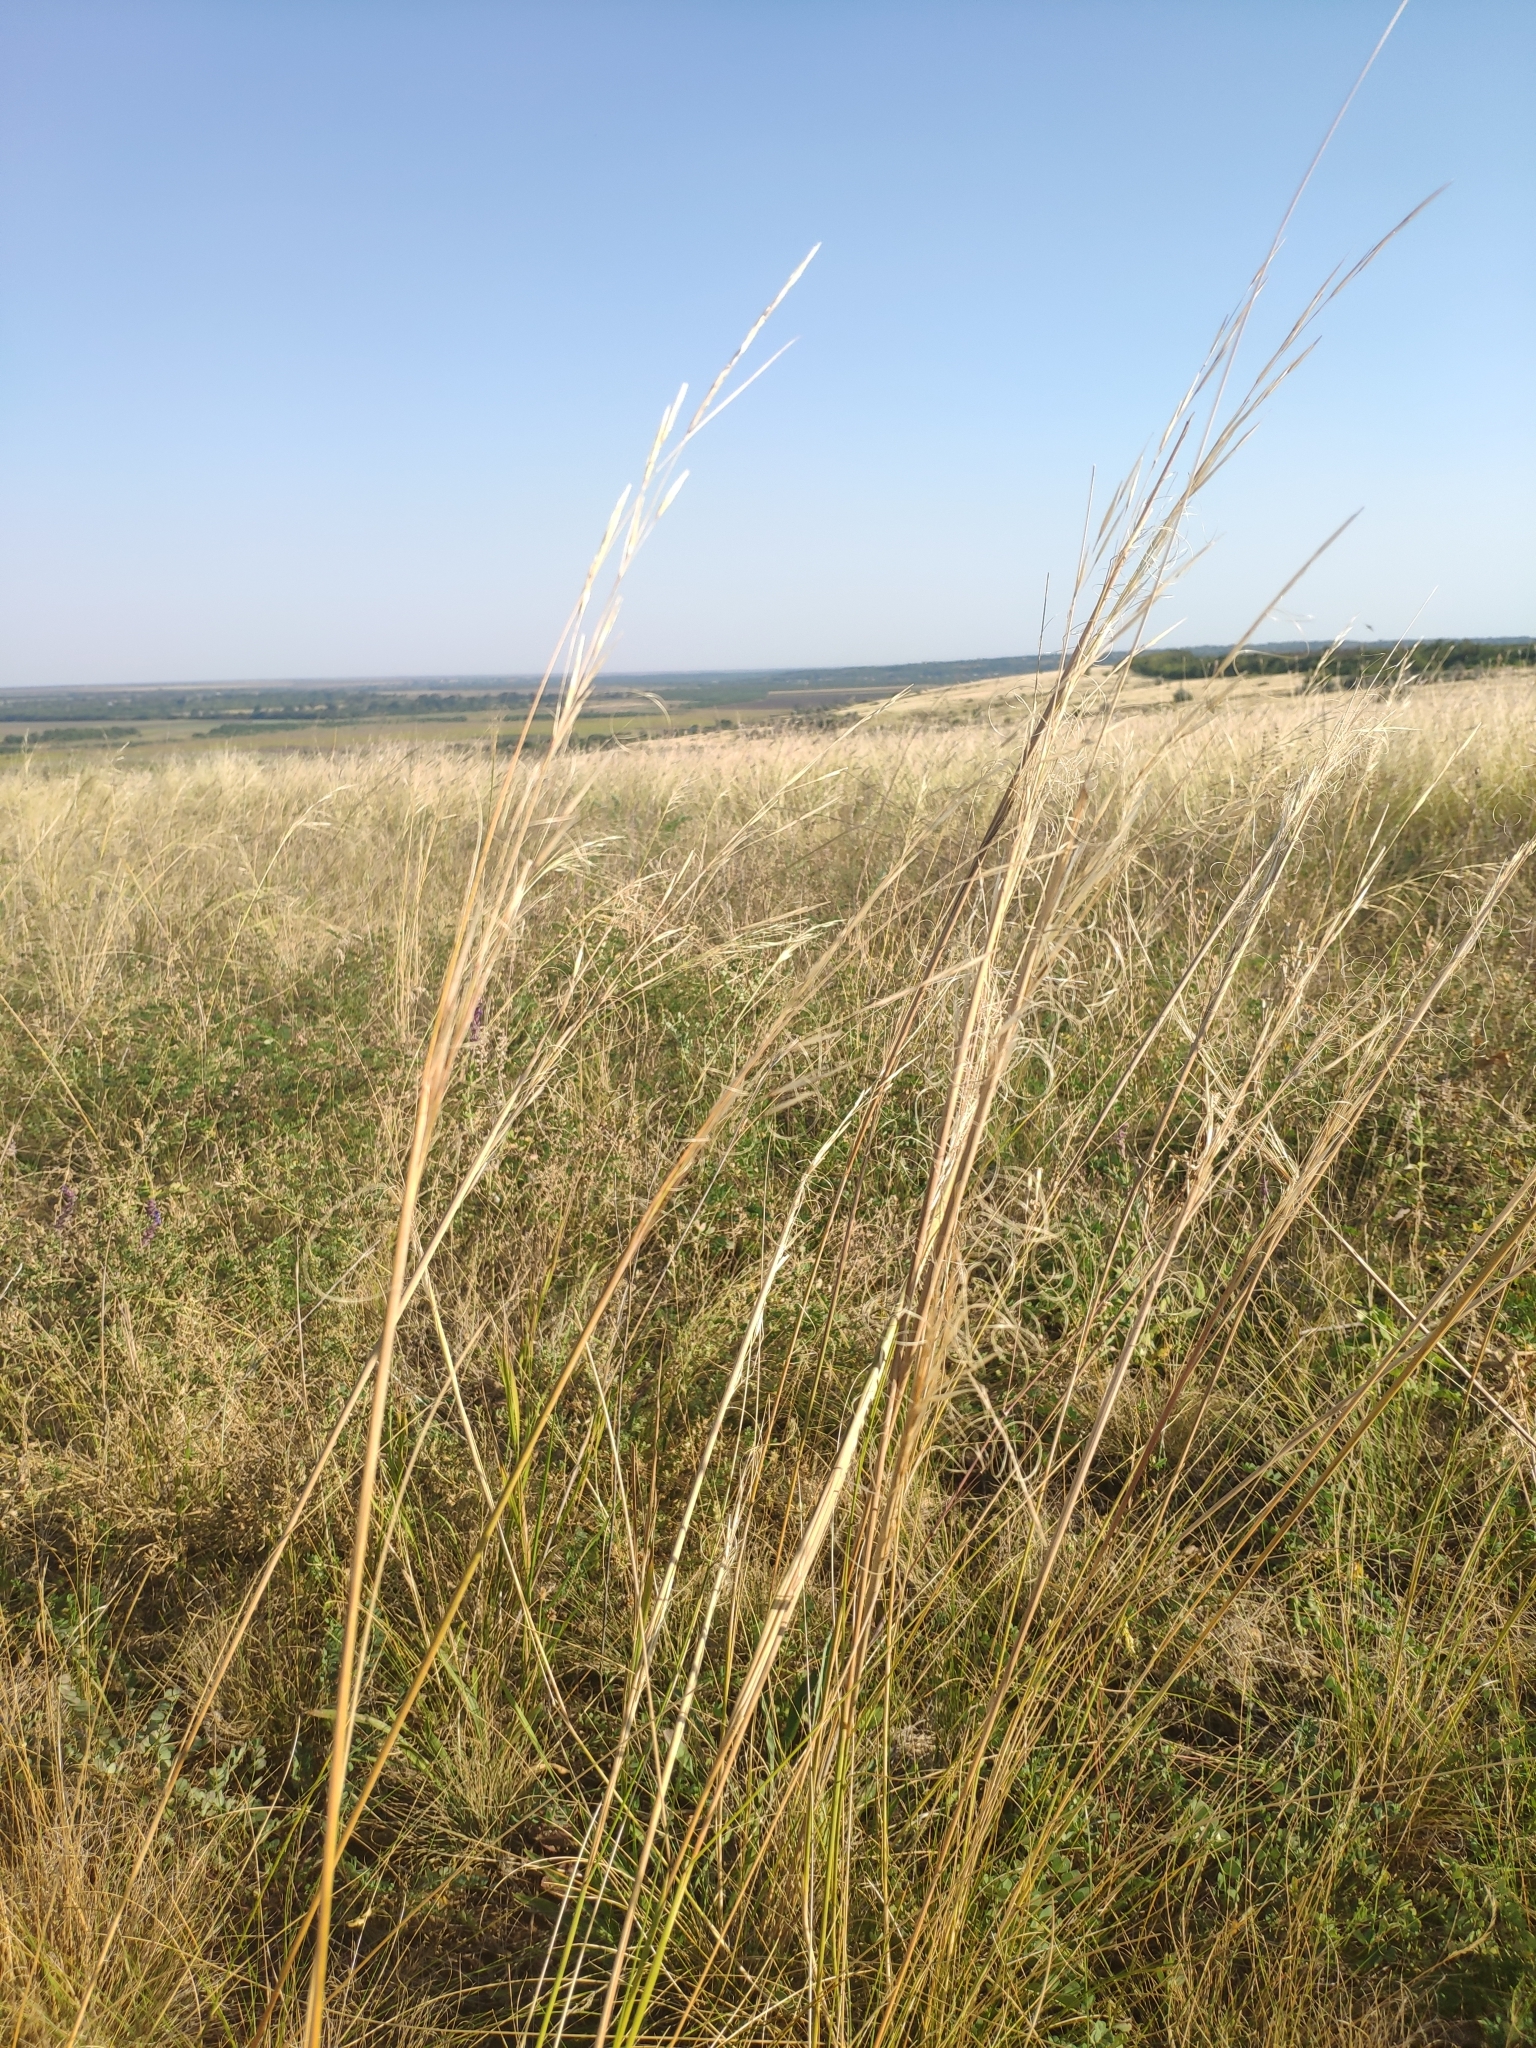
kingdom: Plantae
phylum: Tracheophyta
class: Liliopsida
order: Poales
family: Poaceae
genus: Stipa
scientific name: Stipa capillata
